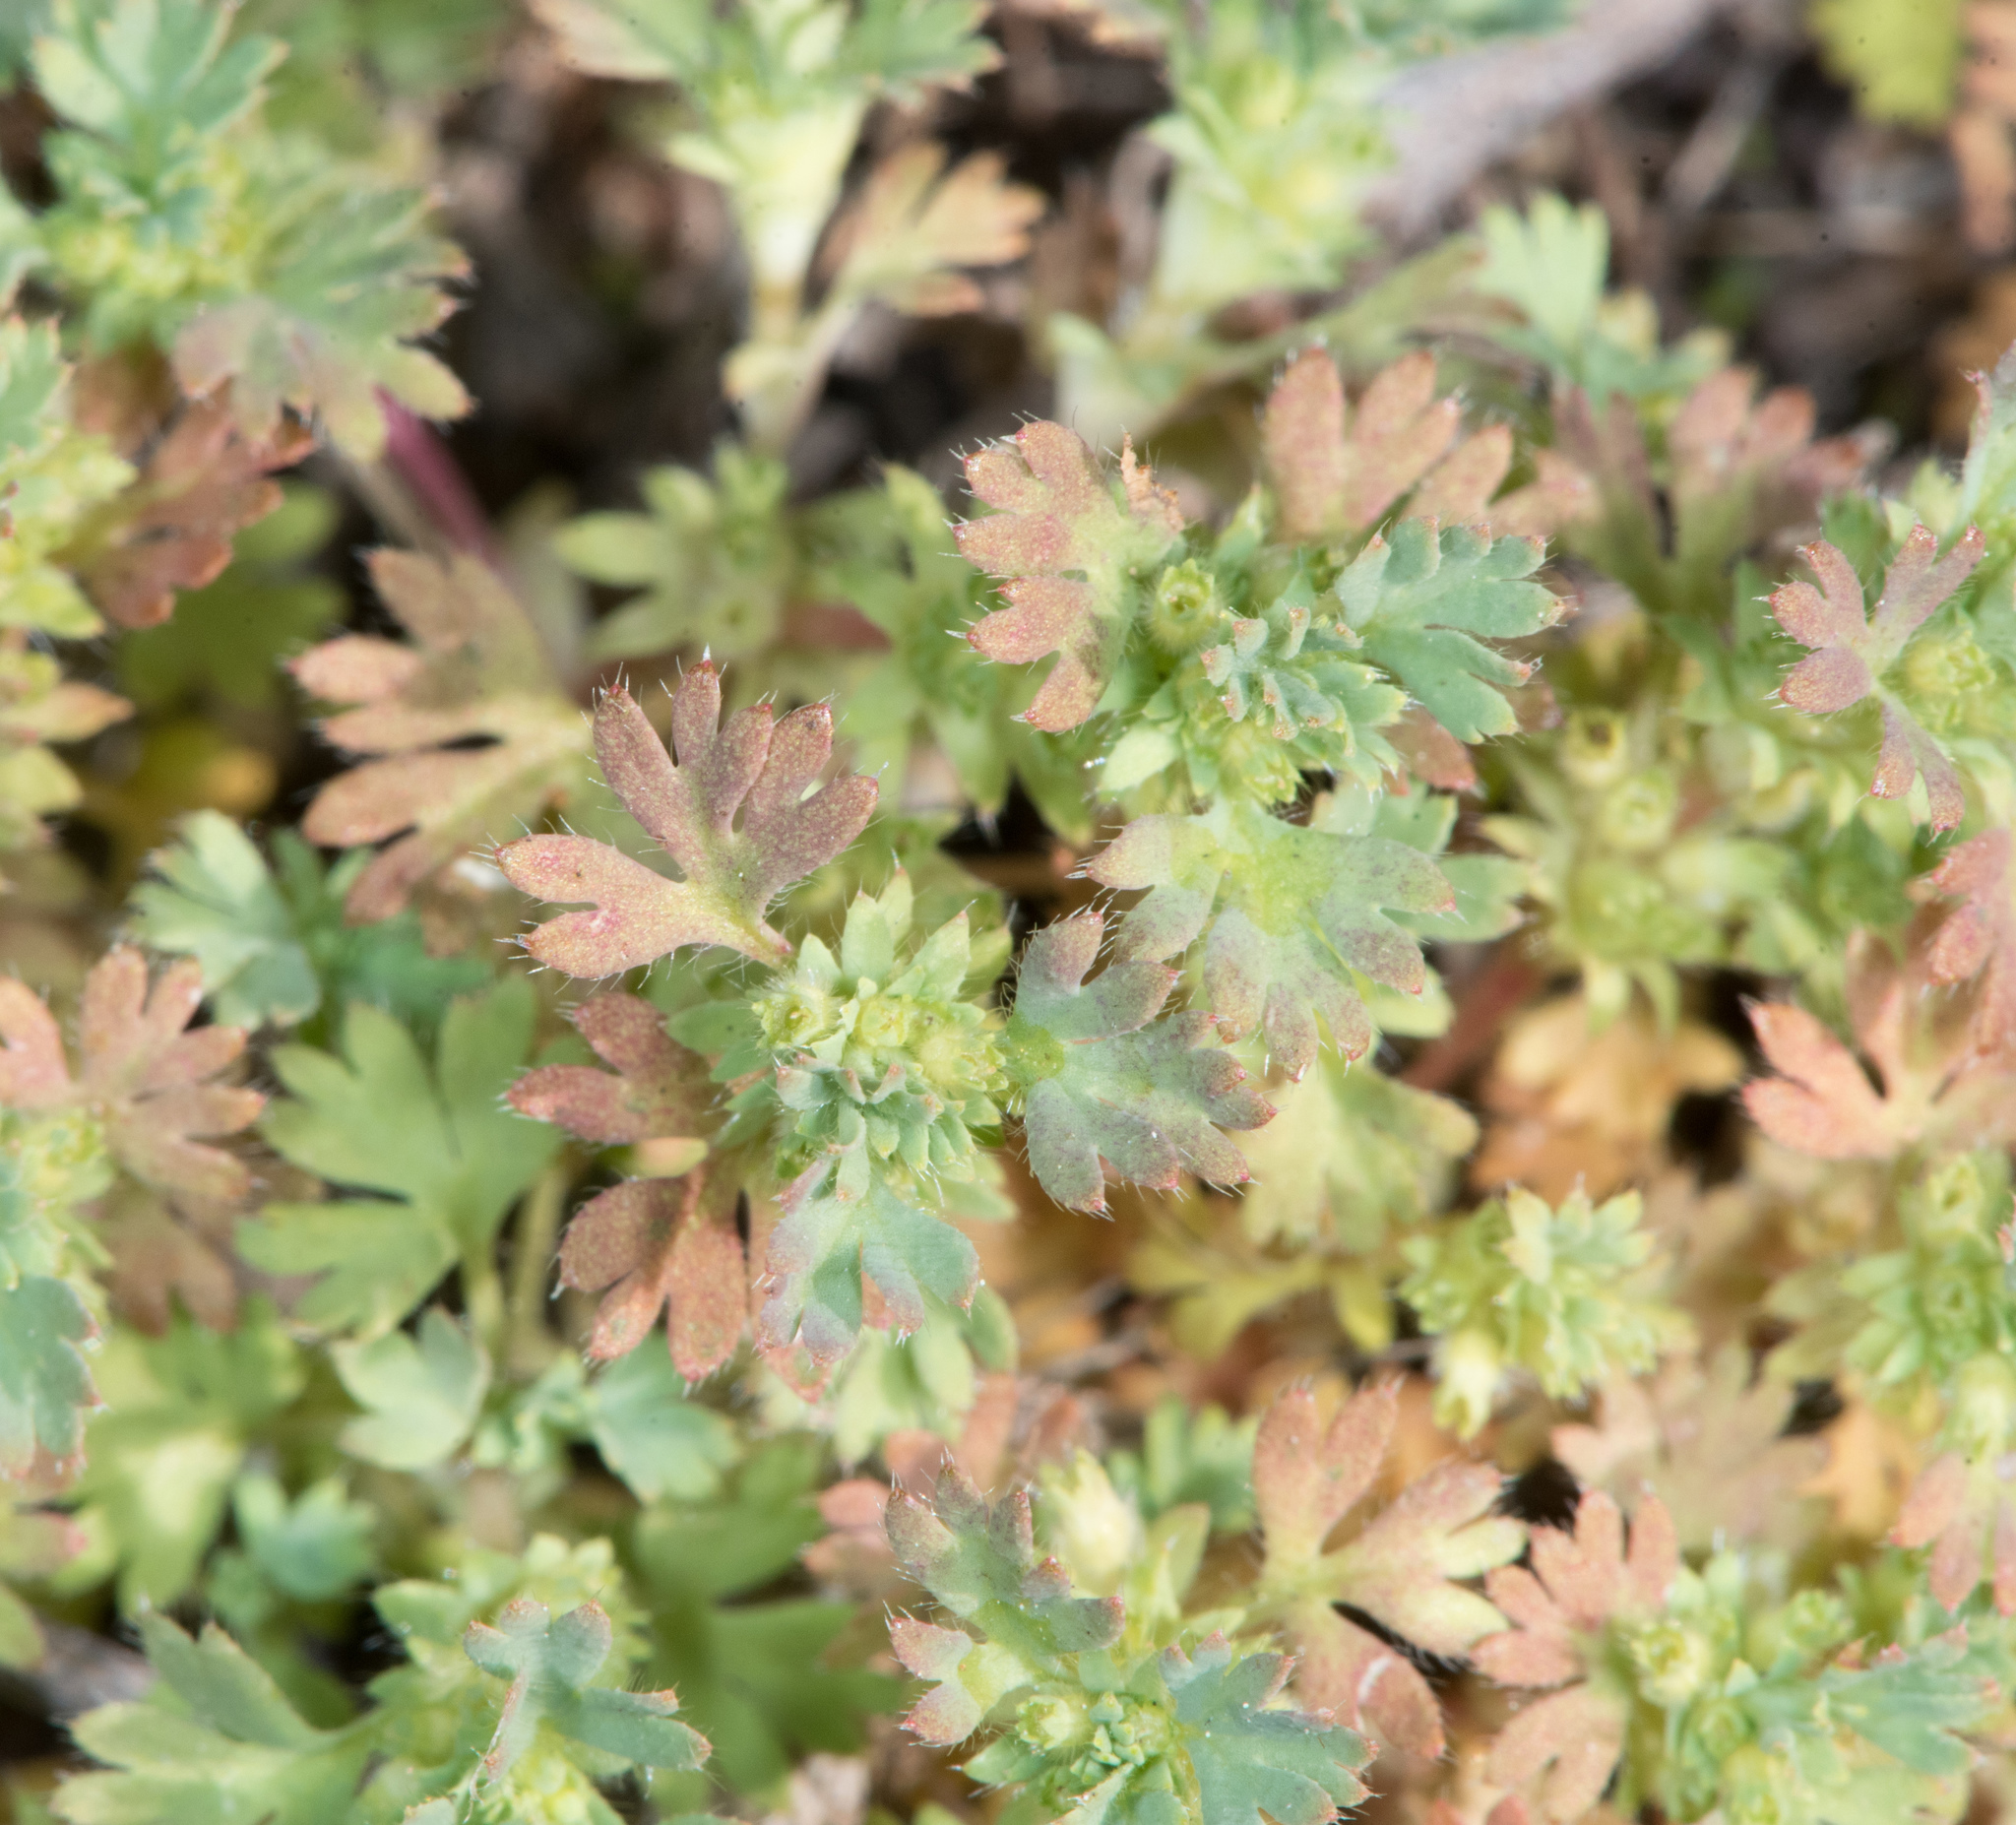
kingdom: Plantae
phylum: Tracheophyta
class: Magnoliopsida
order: Rosales
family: Rosaceae
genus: Aphanes
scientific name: Aphanes arvensis
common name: Parsley-piert
